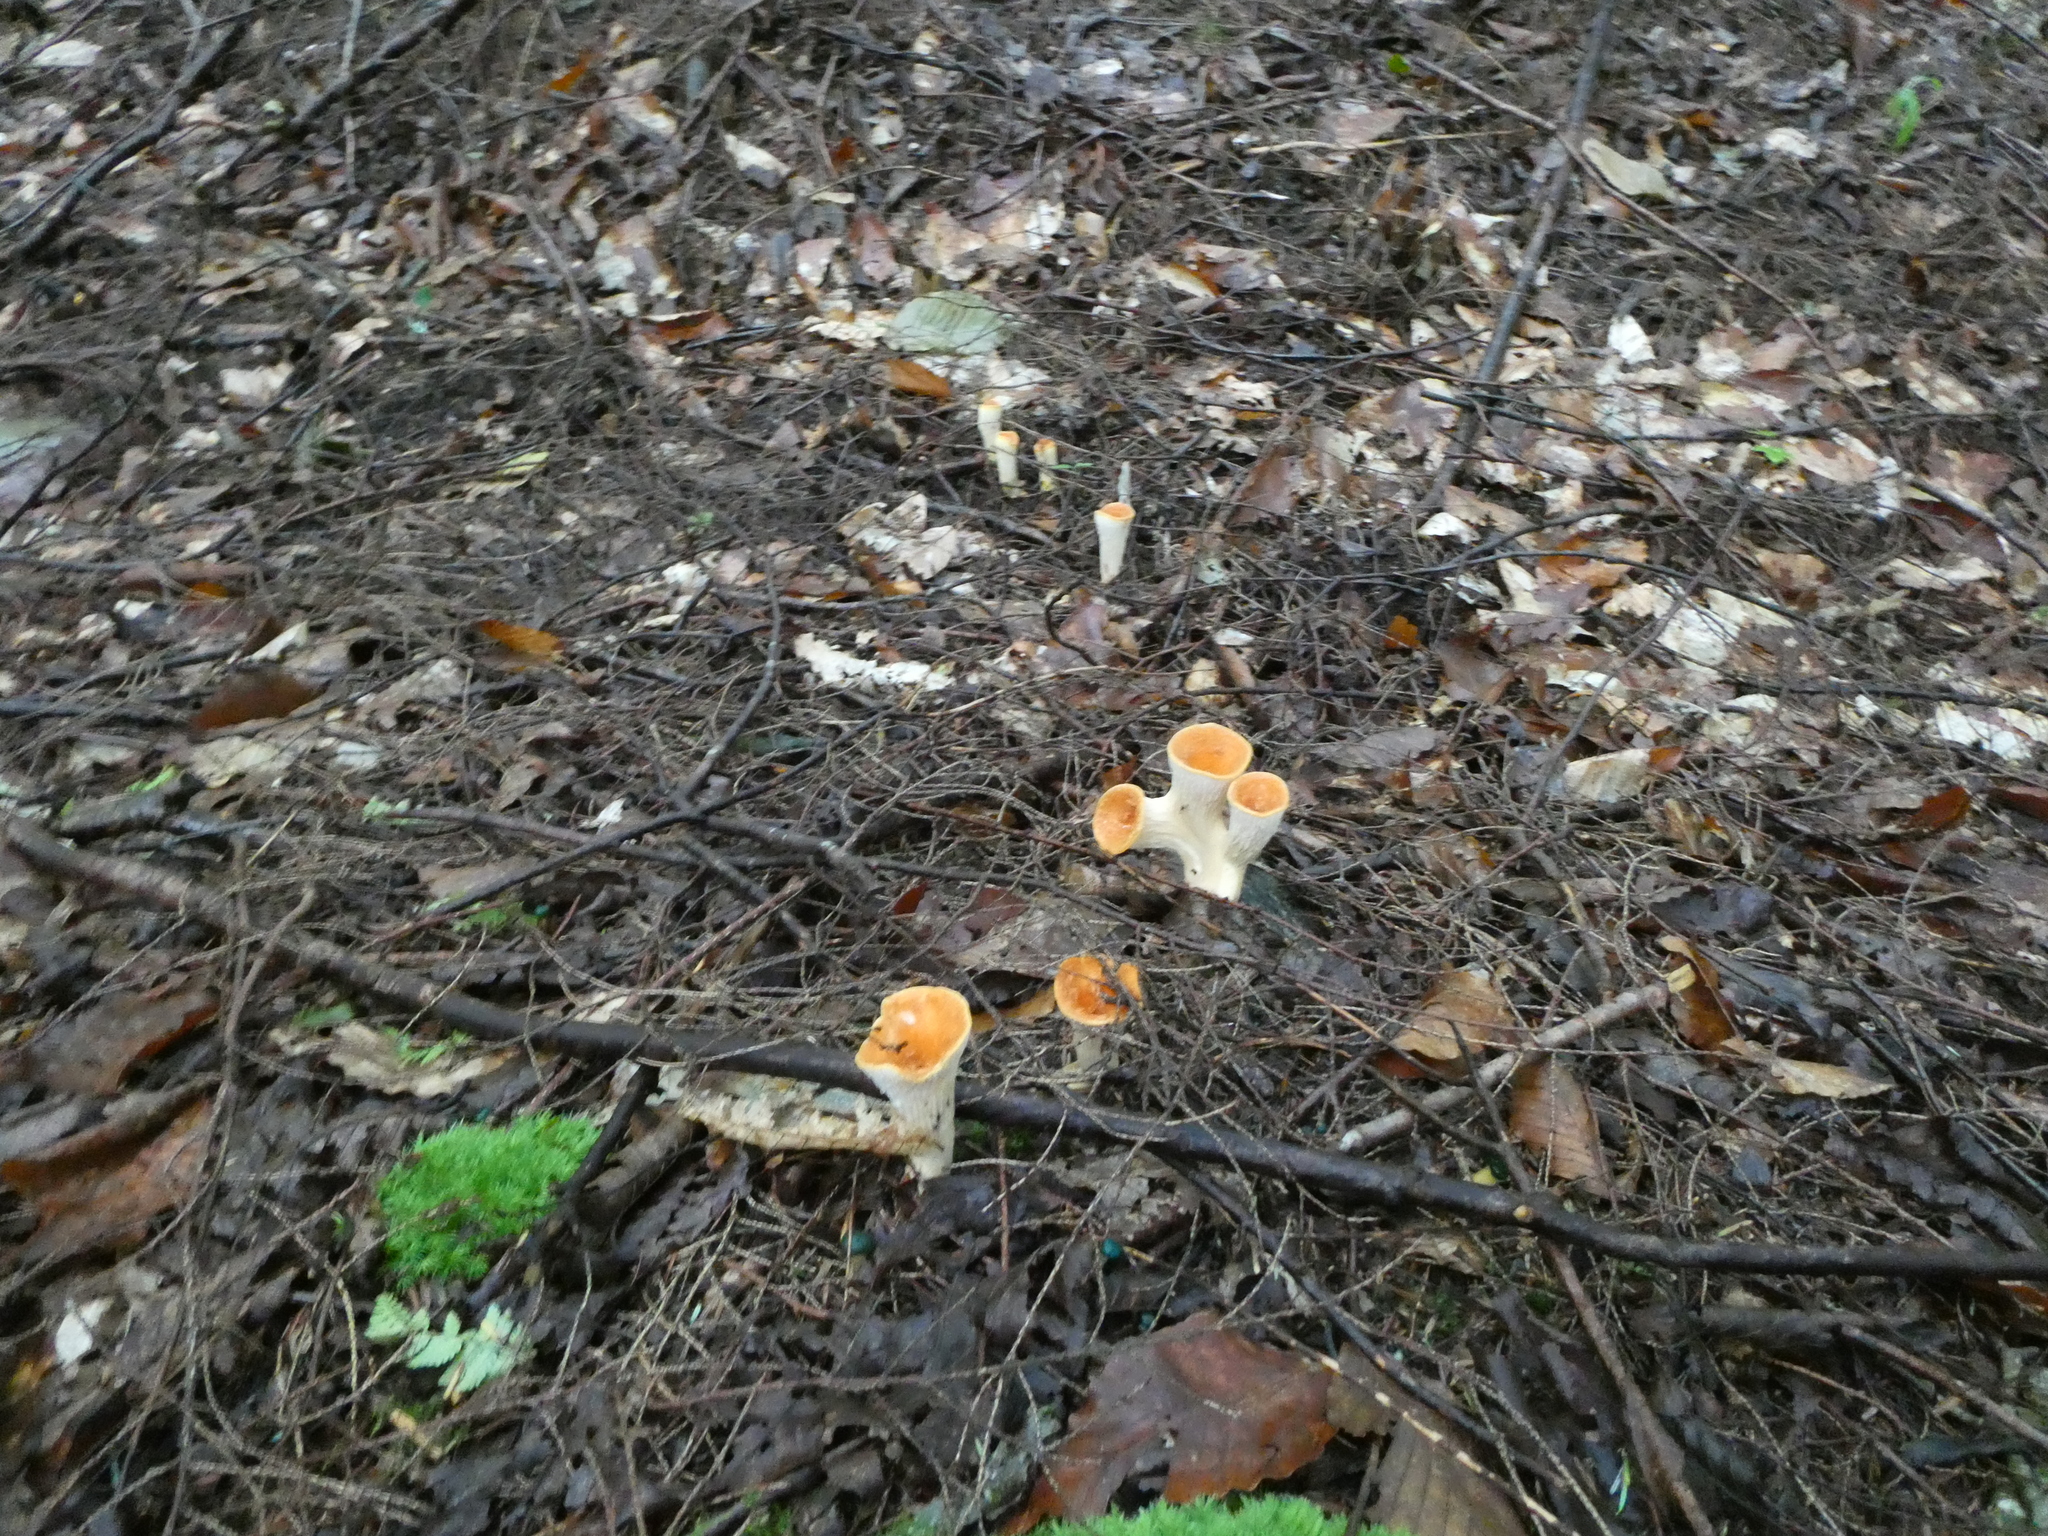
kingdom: Fungi
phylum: Basidiomycota
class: Agaricomycetes
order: Gomphales
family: Gomphaceae
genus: Turbinellus
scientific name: Turbinellus floccosus
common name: Scaly chanterelle
